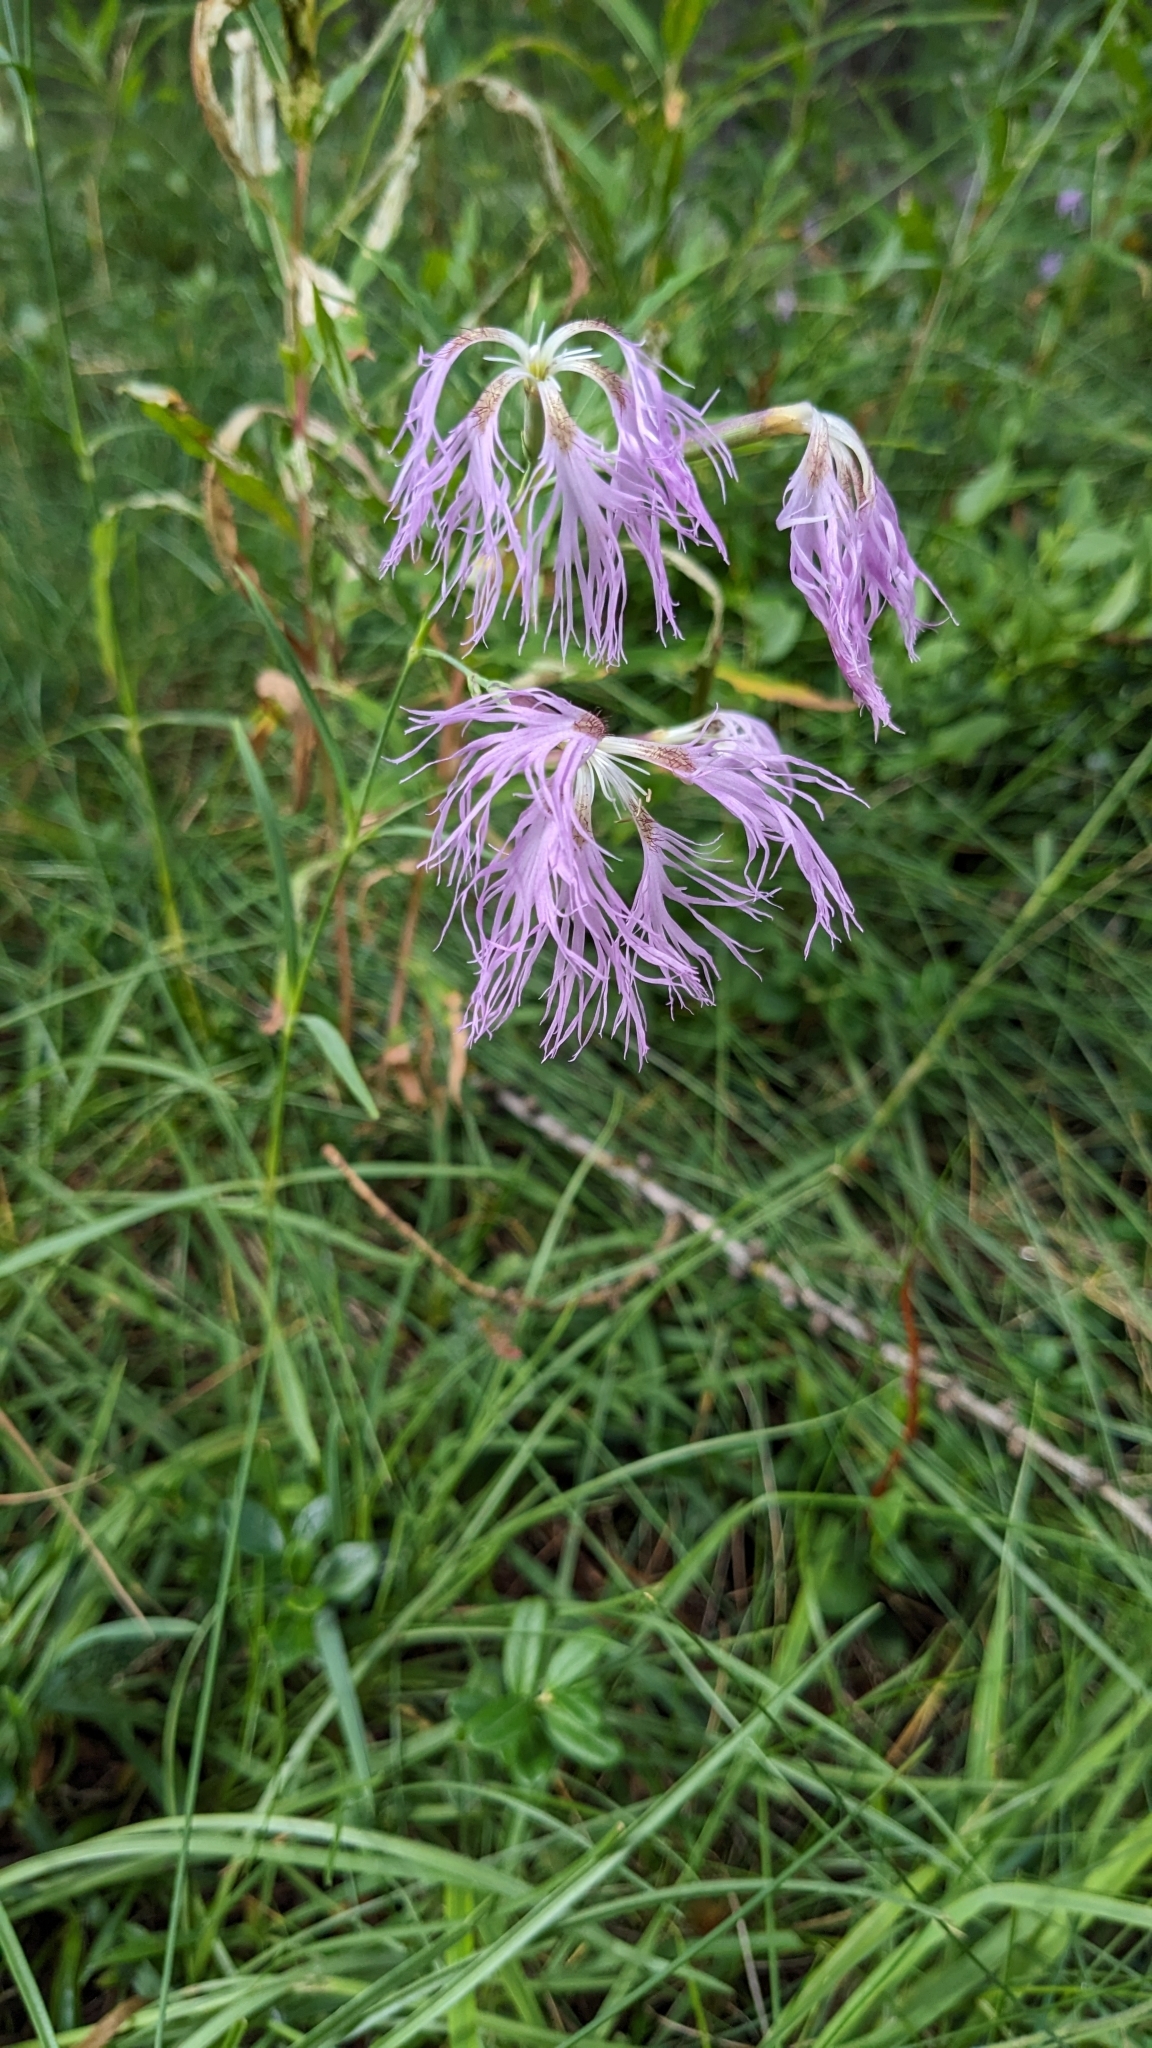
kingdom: Plantae
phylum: Tracheophyta
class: Magnoliopsida
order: Caryophyllales
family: Caryophyllaceae
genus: Dianthus
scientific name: Dianthus superbus
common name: Fringed pink
